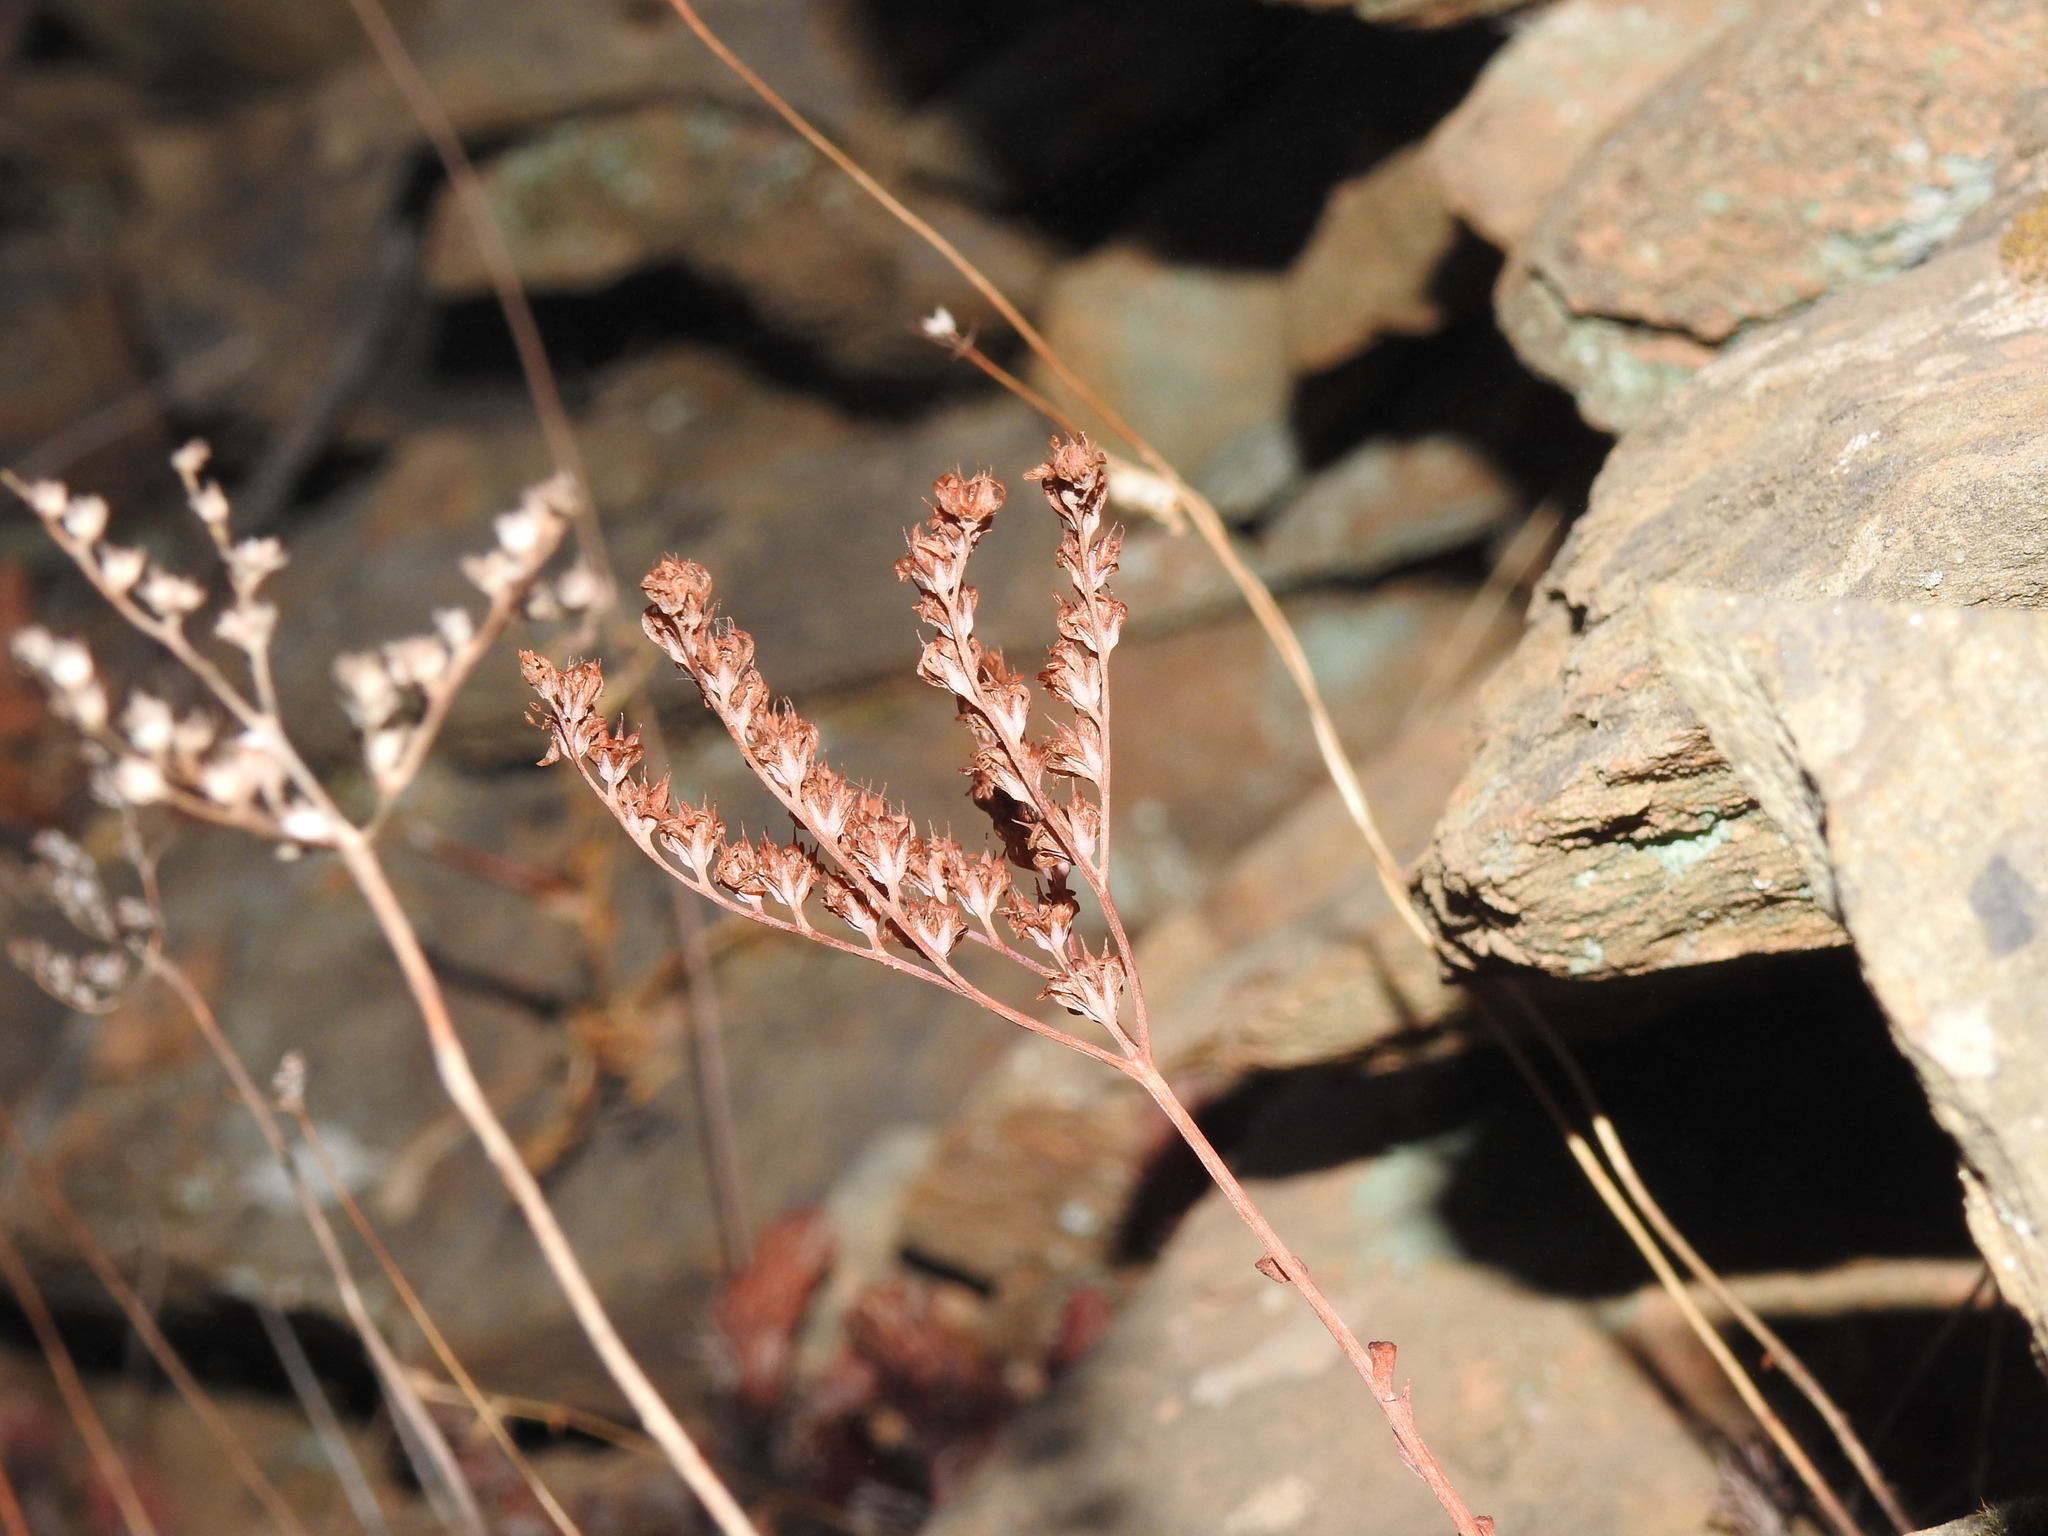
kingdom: Plantae
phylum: Tracheophyta
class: Magnoliopsida
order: Saxifragales
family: Crassulaceae
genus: Petrosedum
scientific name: Petrosedum forsterianum
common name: Forster's stonecrop
